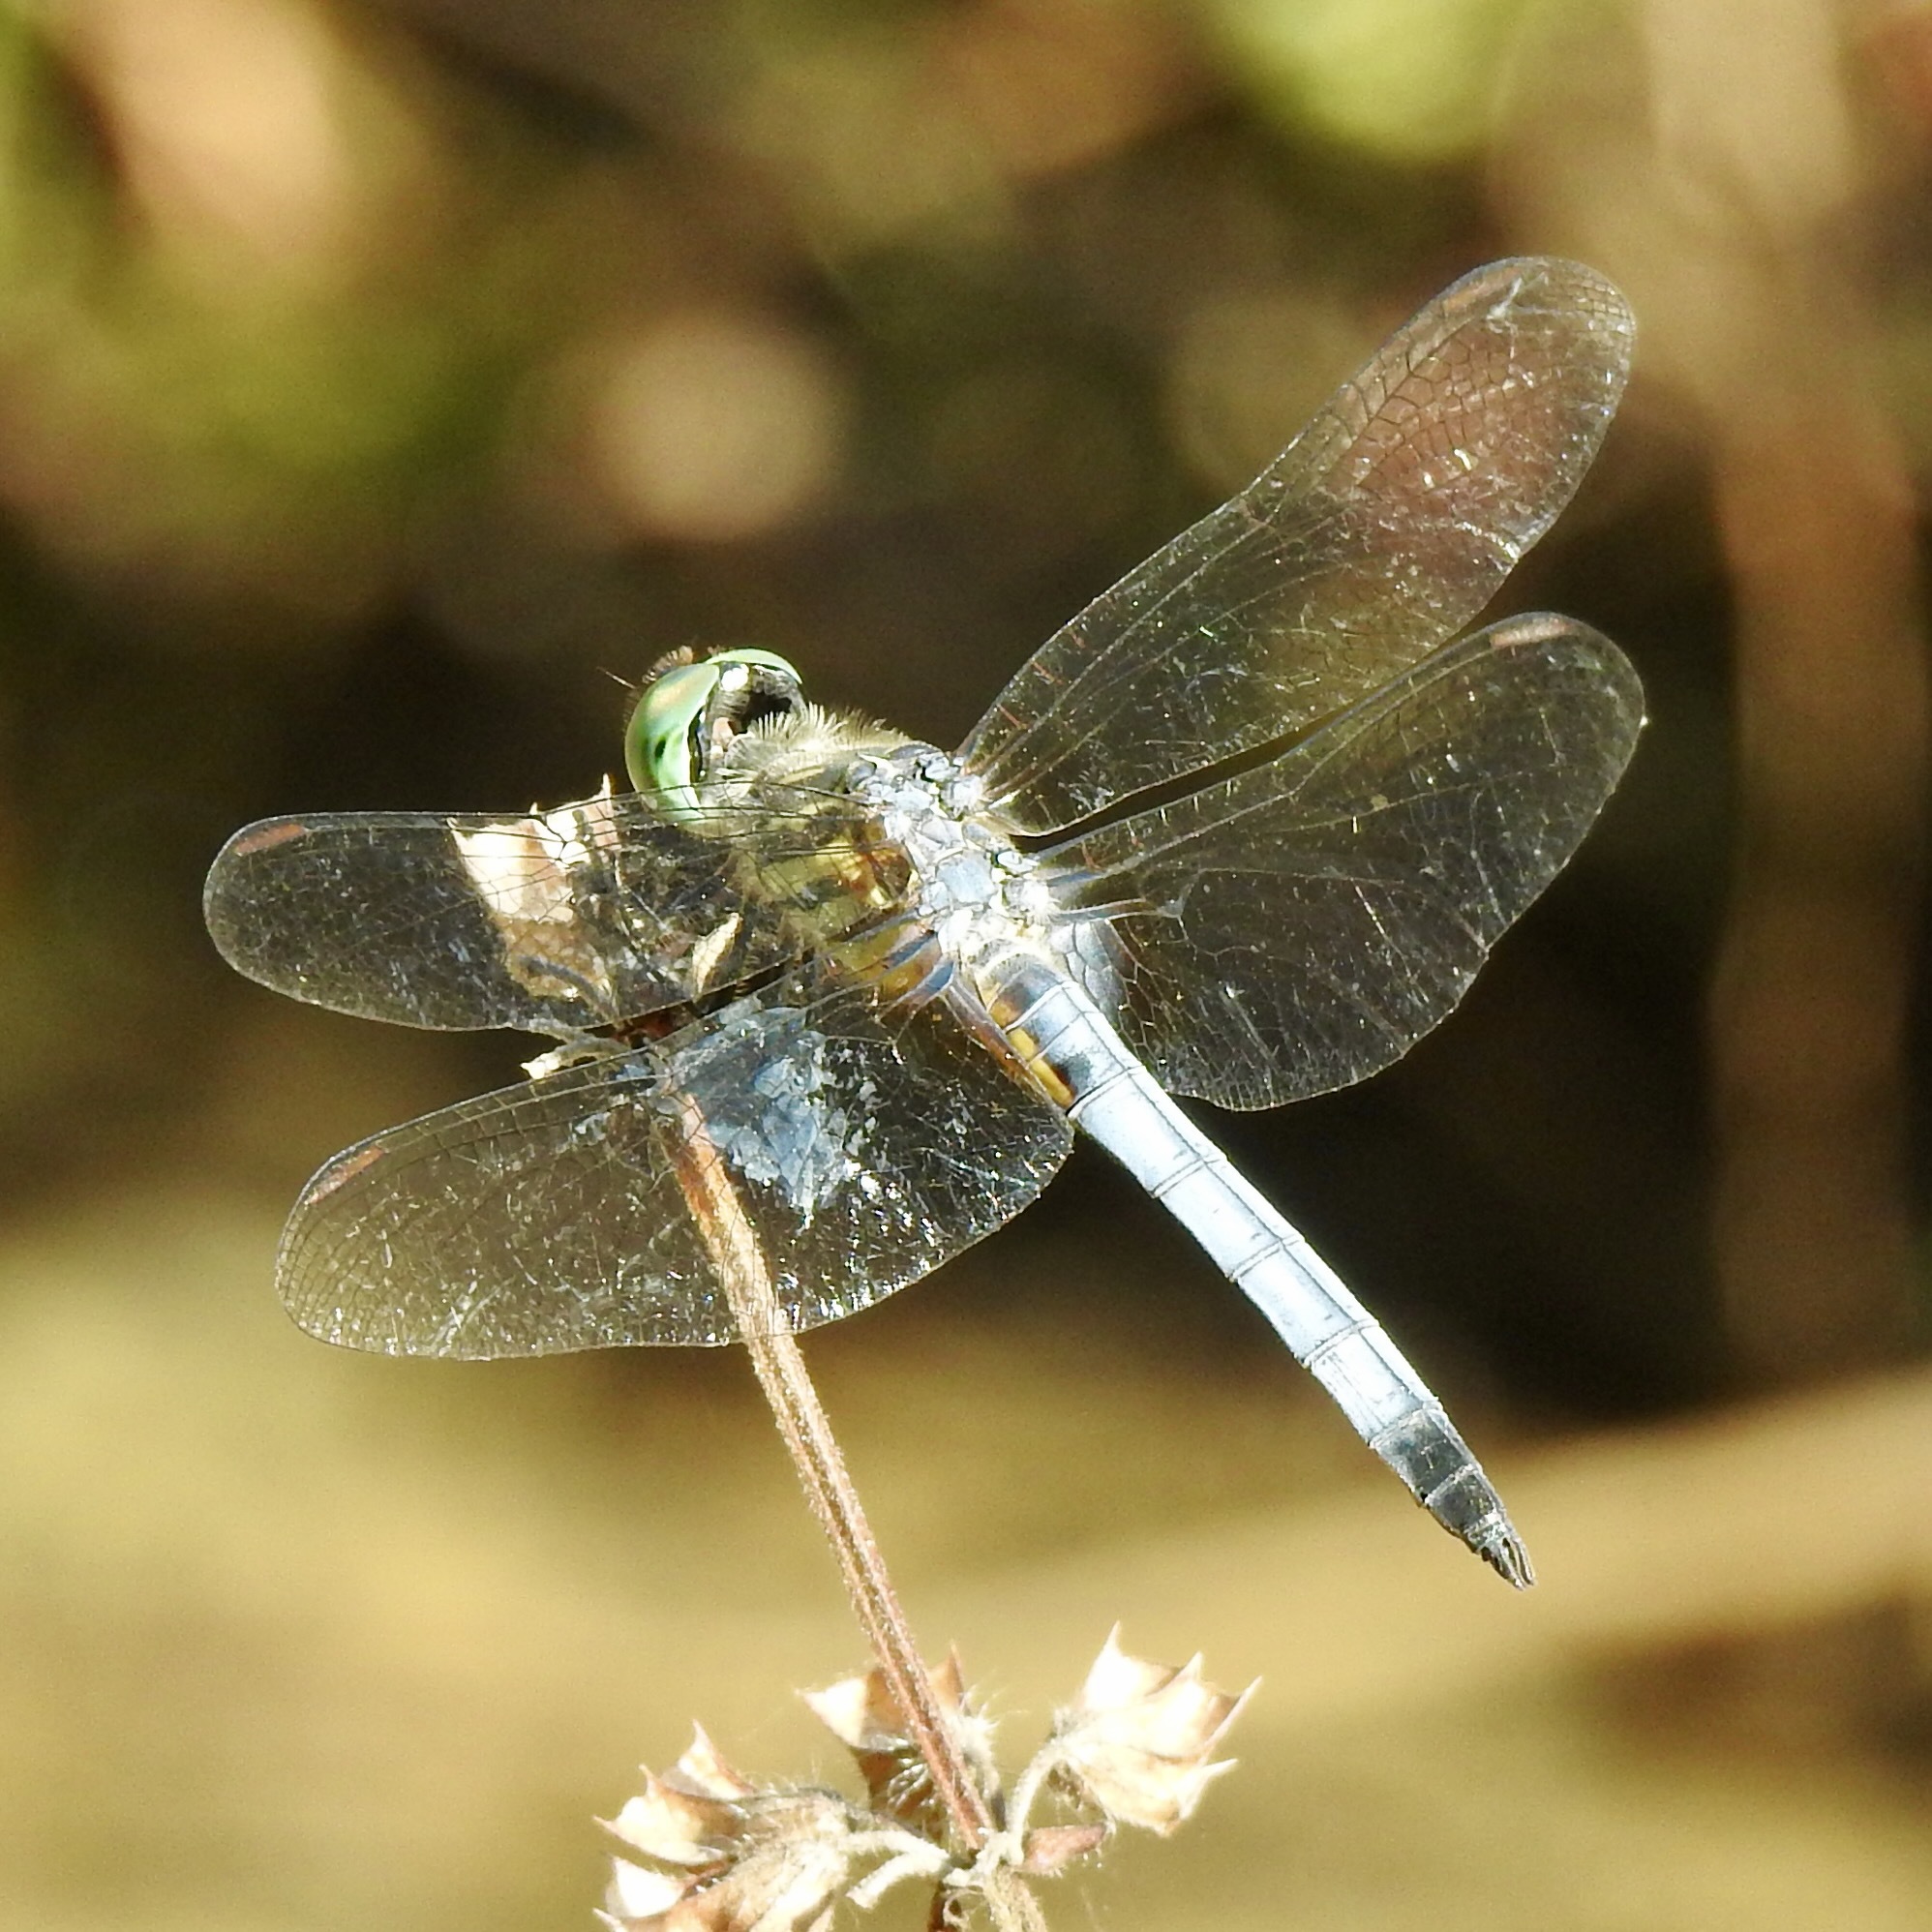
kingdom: Animalia
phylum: Arthropoda
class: Insecta
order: Odonata
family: Libellulidae
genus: Pachydiplax
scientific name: Pachydiplax longipennis
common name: Blue dasher
